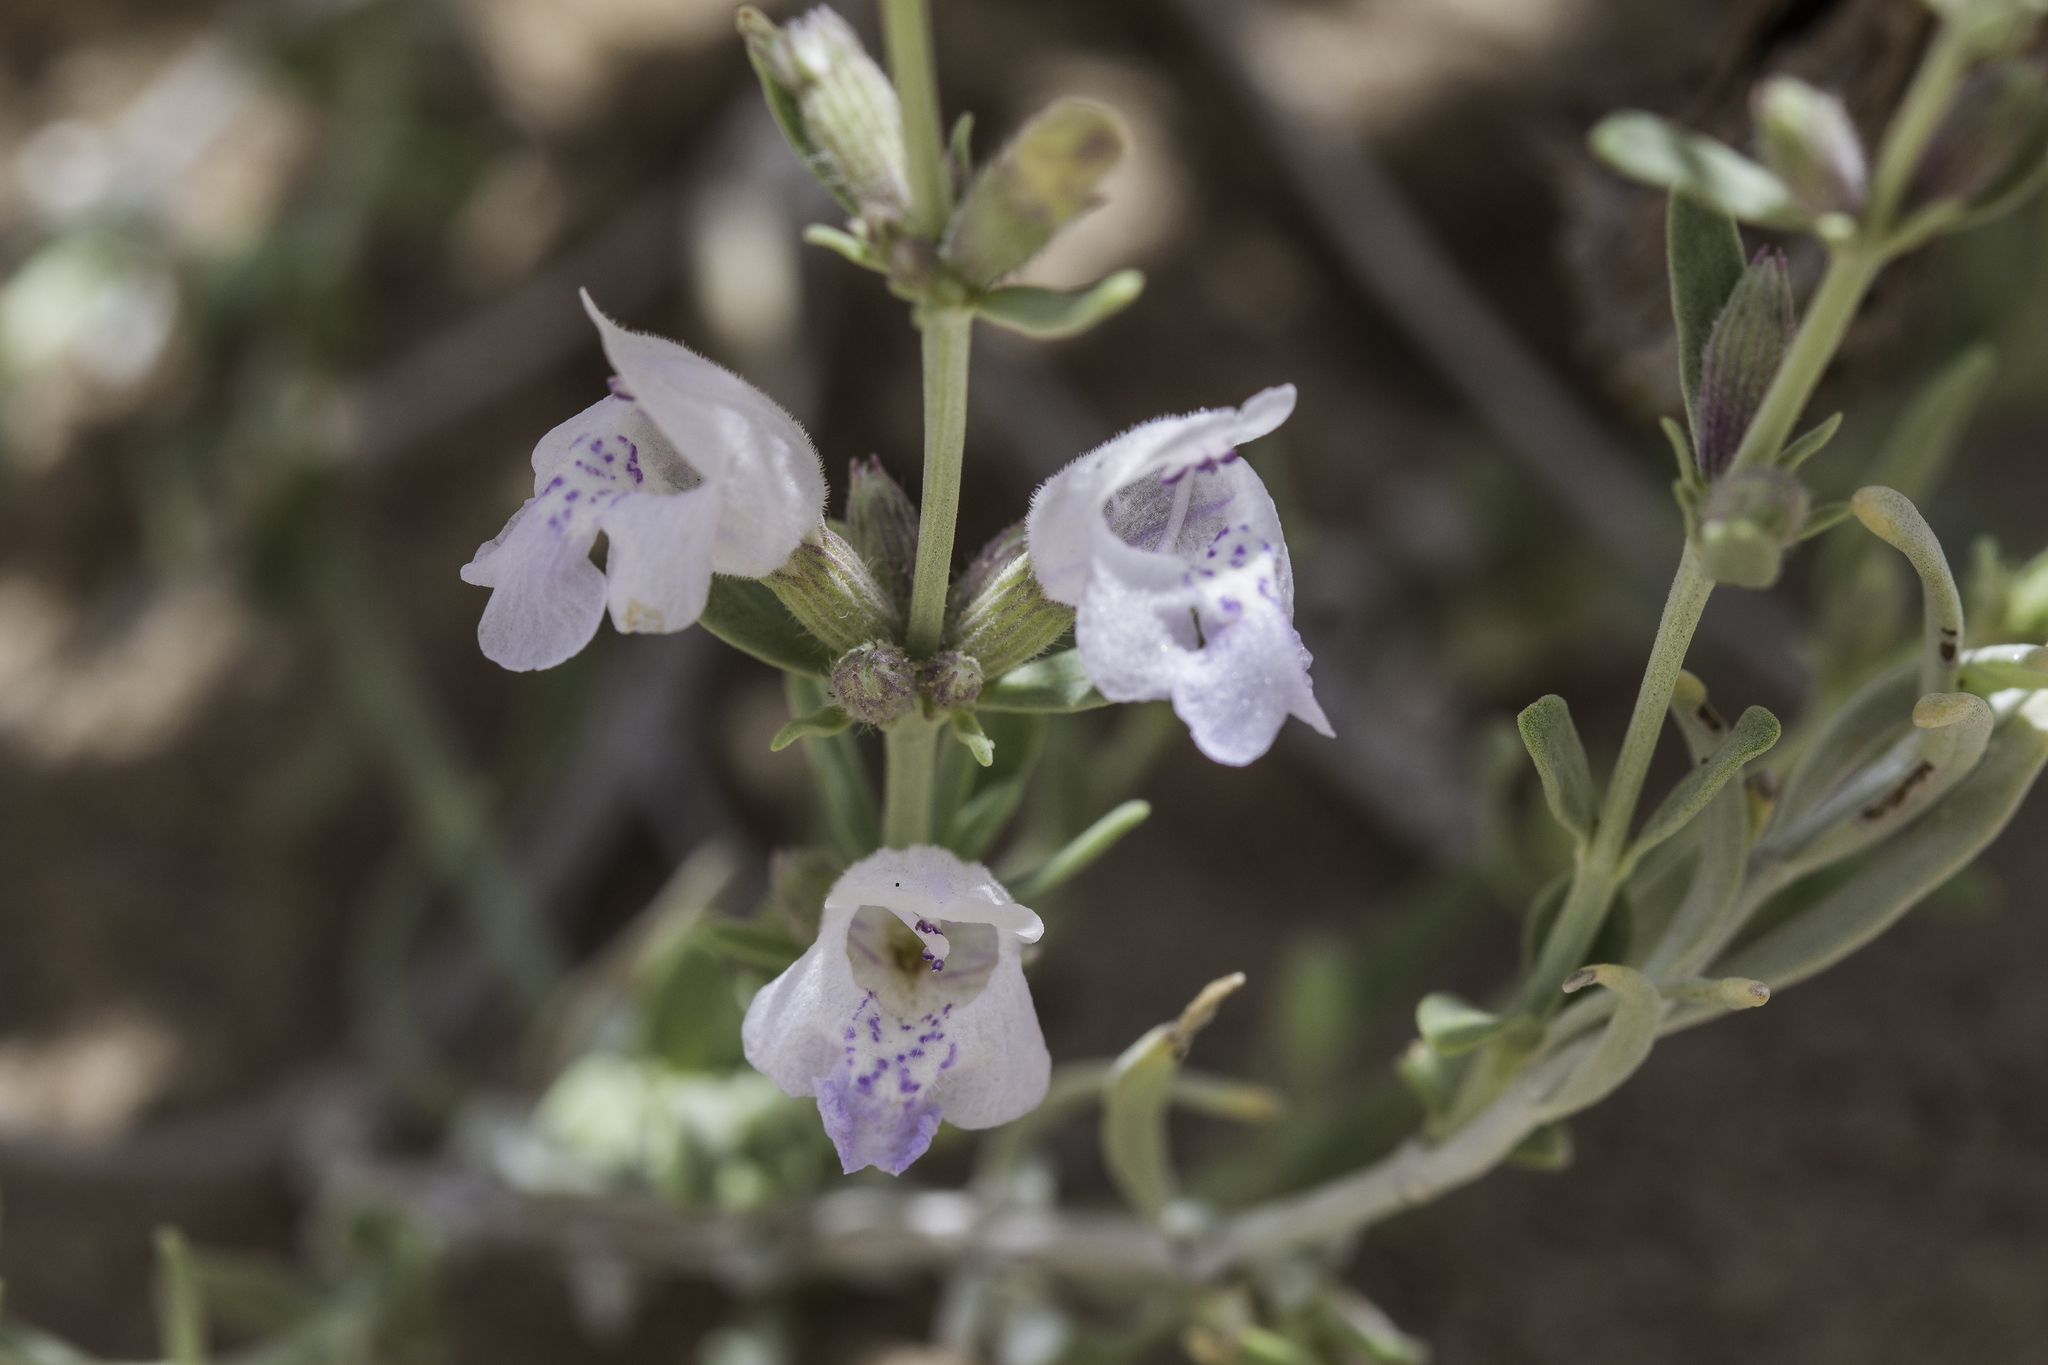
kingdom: Plantae
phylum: Tracheophyta
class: Magnoliopsida
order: Lamiales
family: Lamiaceae
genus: Poliomintha
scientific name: Poliomintha incana
